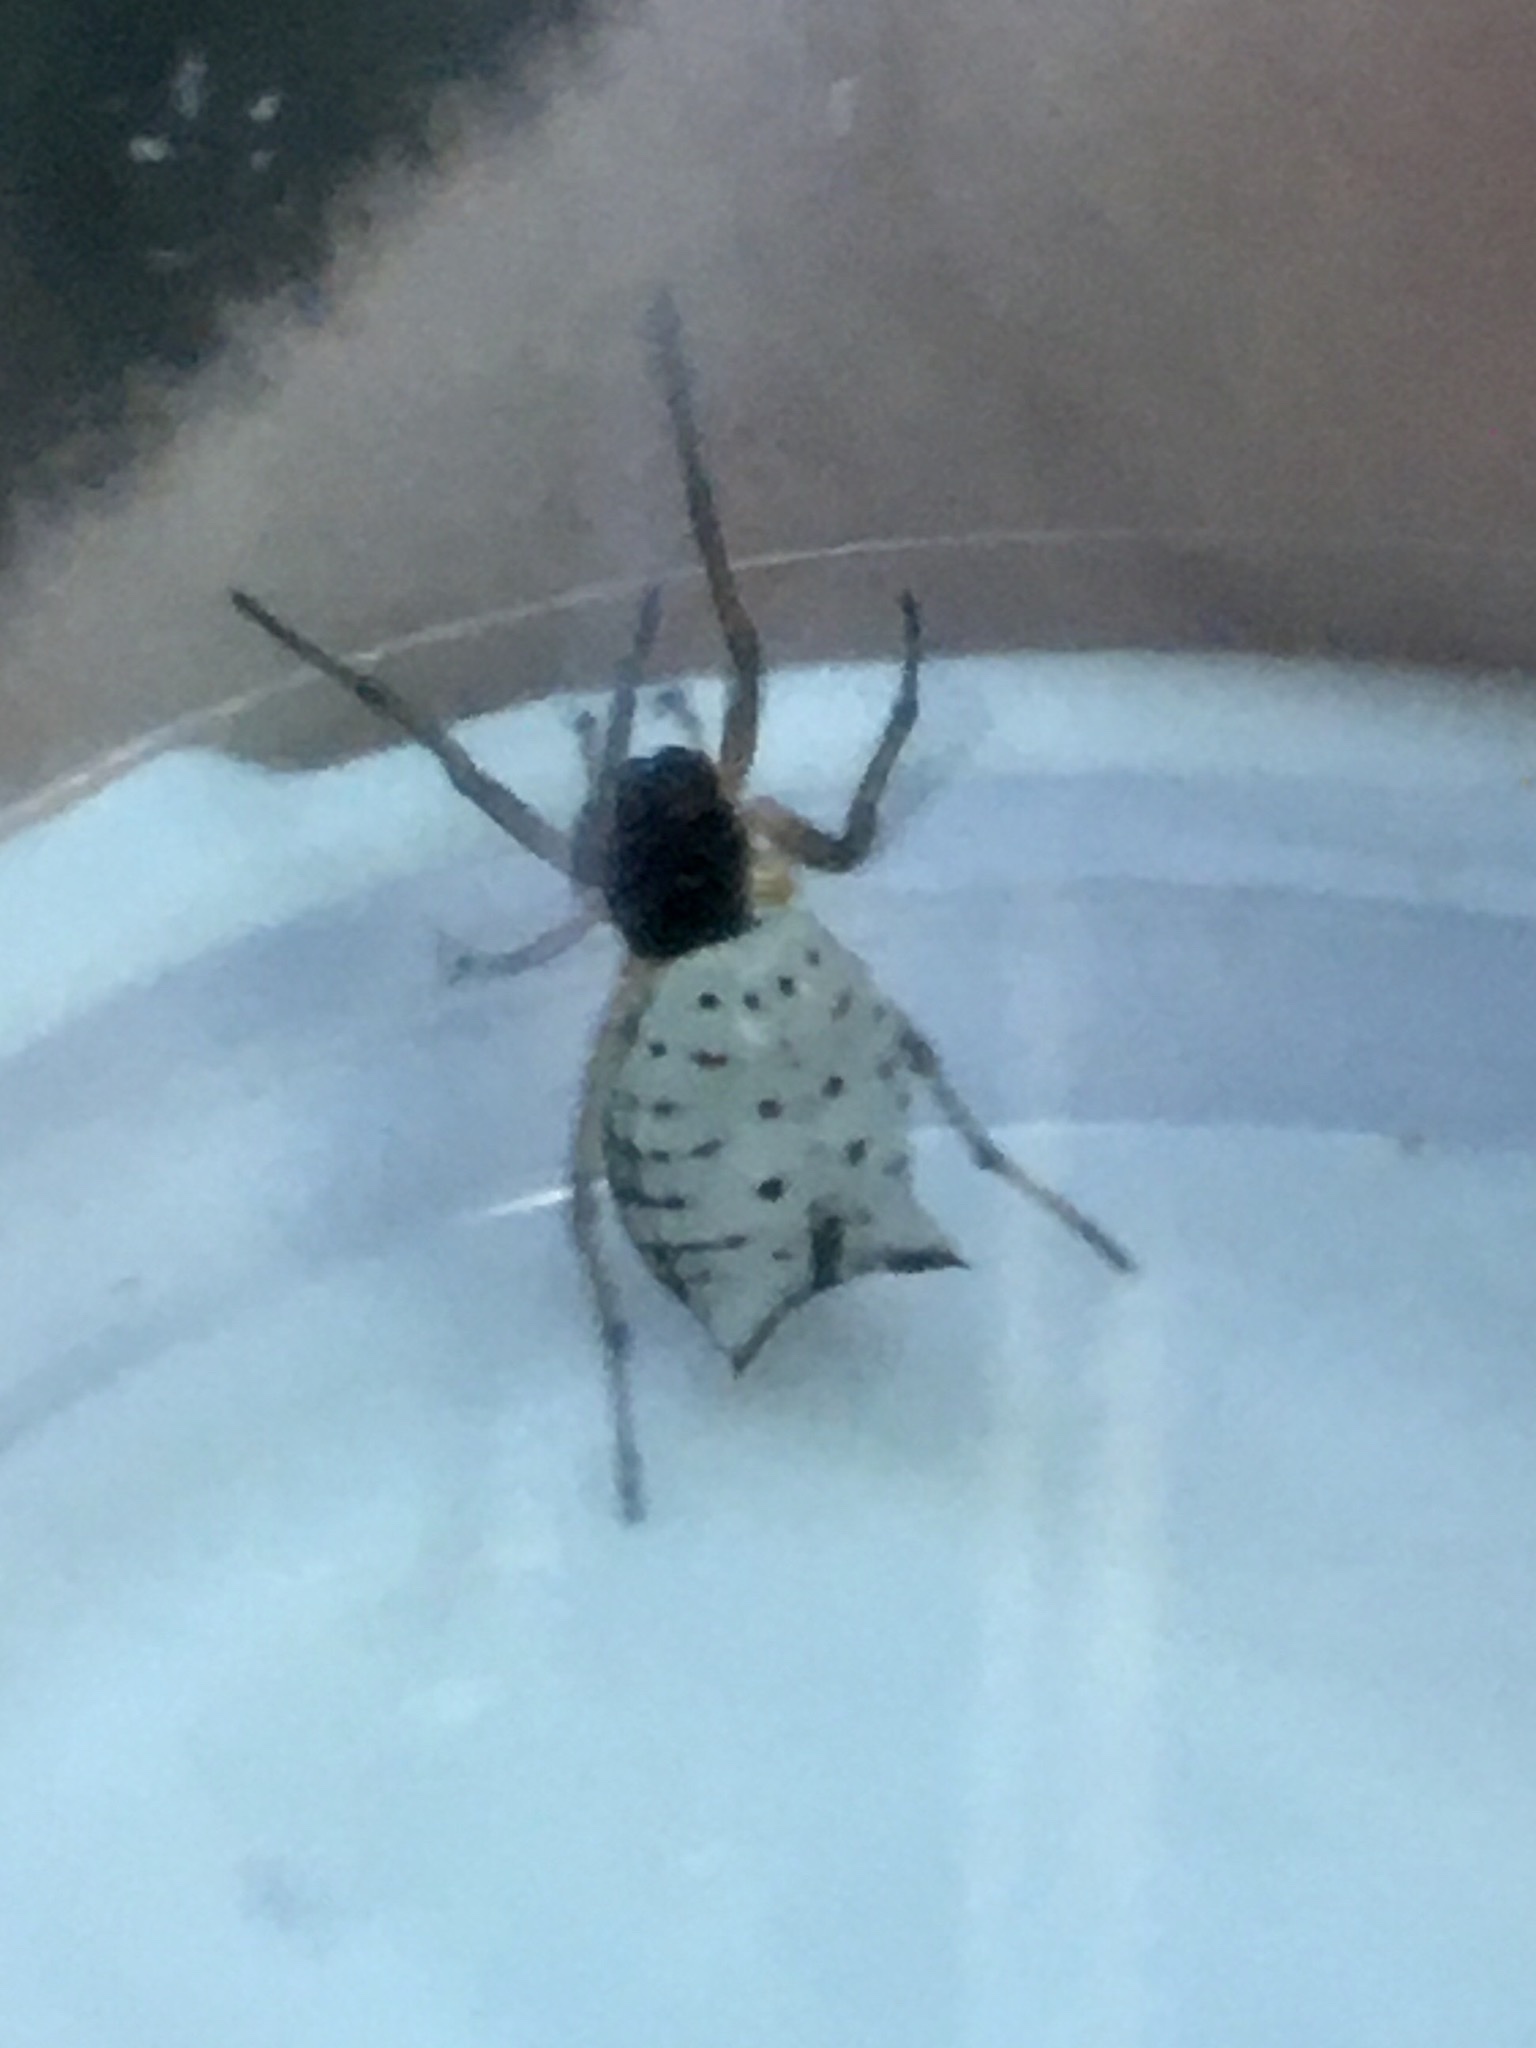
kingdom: Animalia
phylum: Arthropoda
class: Arachnida
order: Araneae
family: Araneidae
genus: Micrathena
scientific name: Micrathena mitrata
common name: Orb weavers
